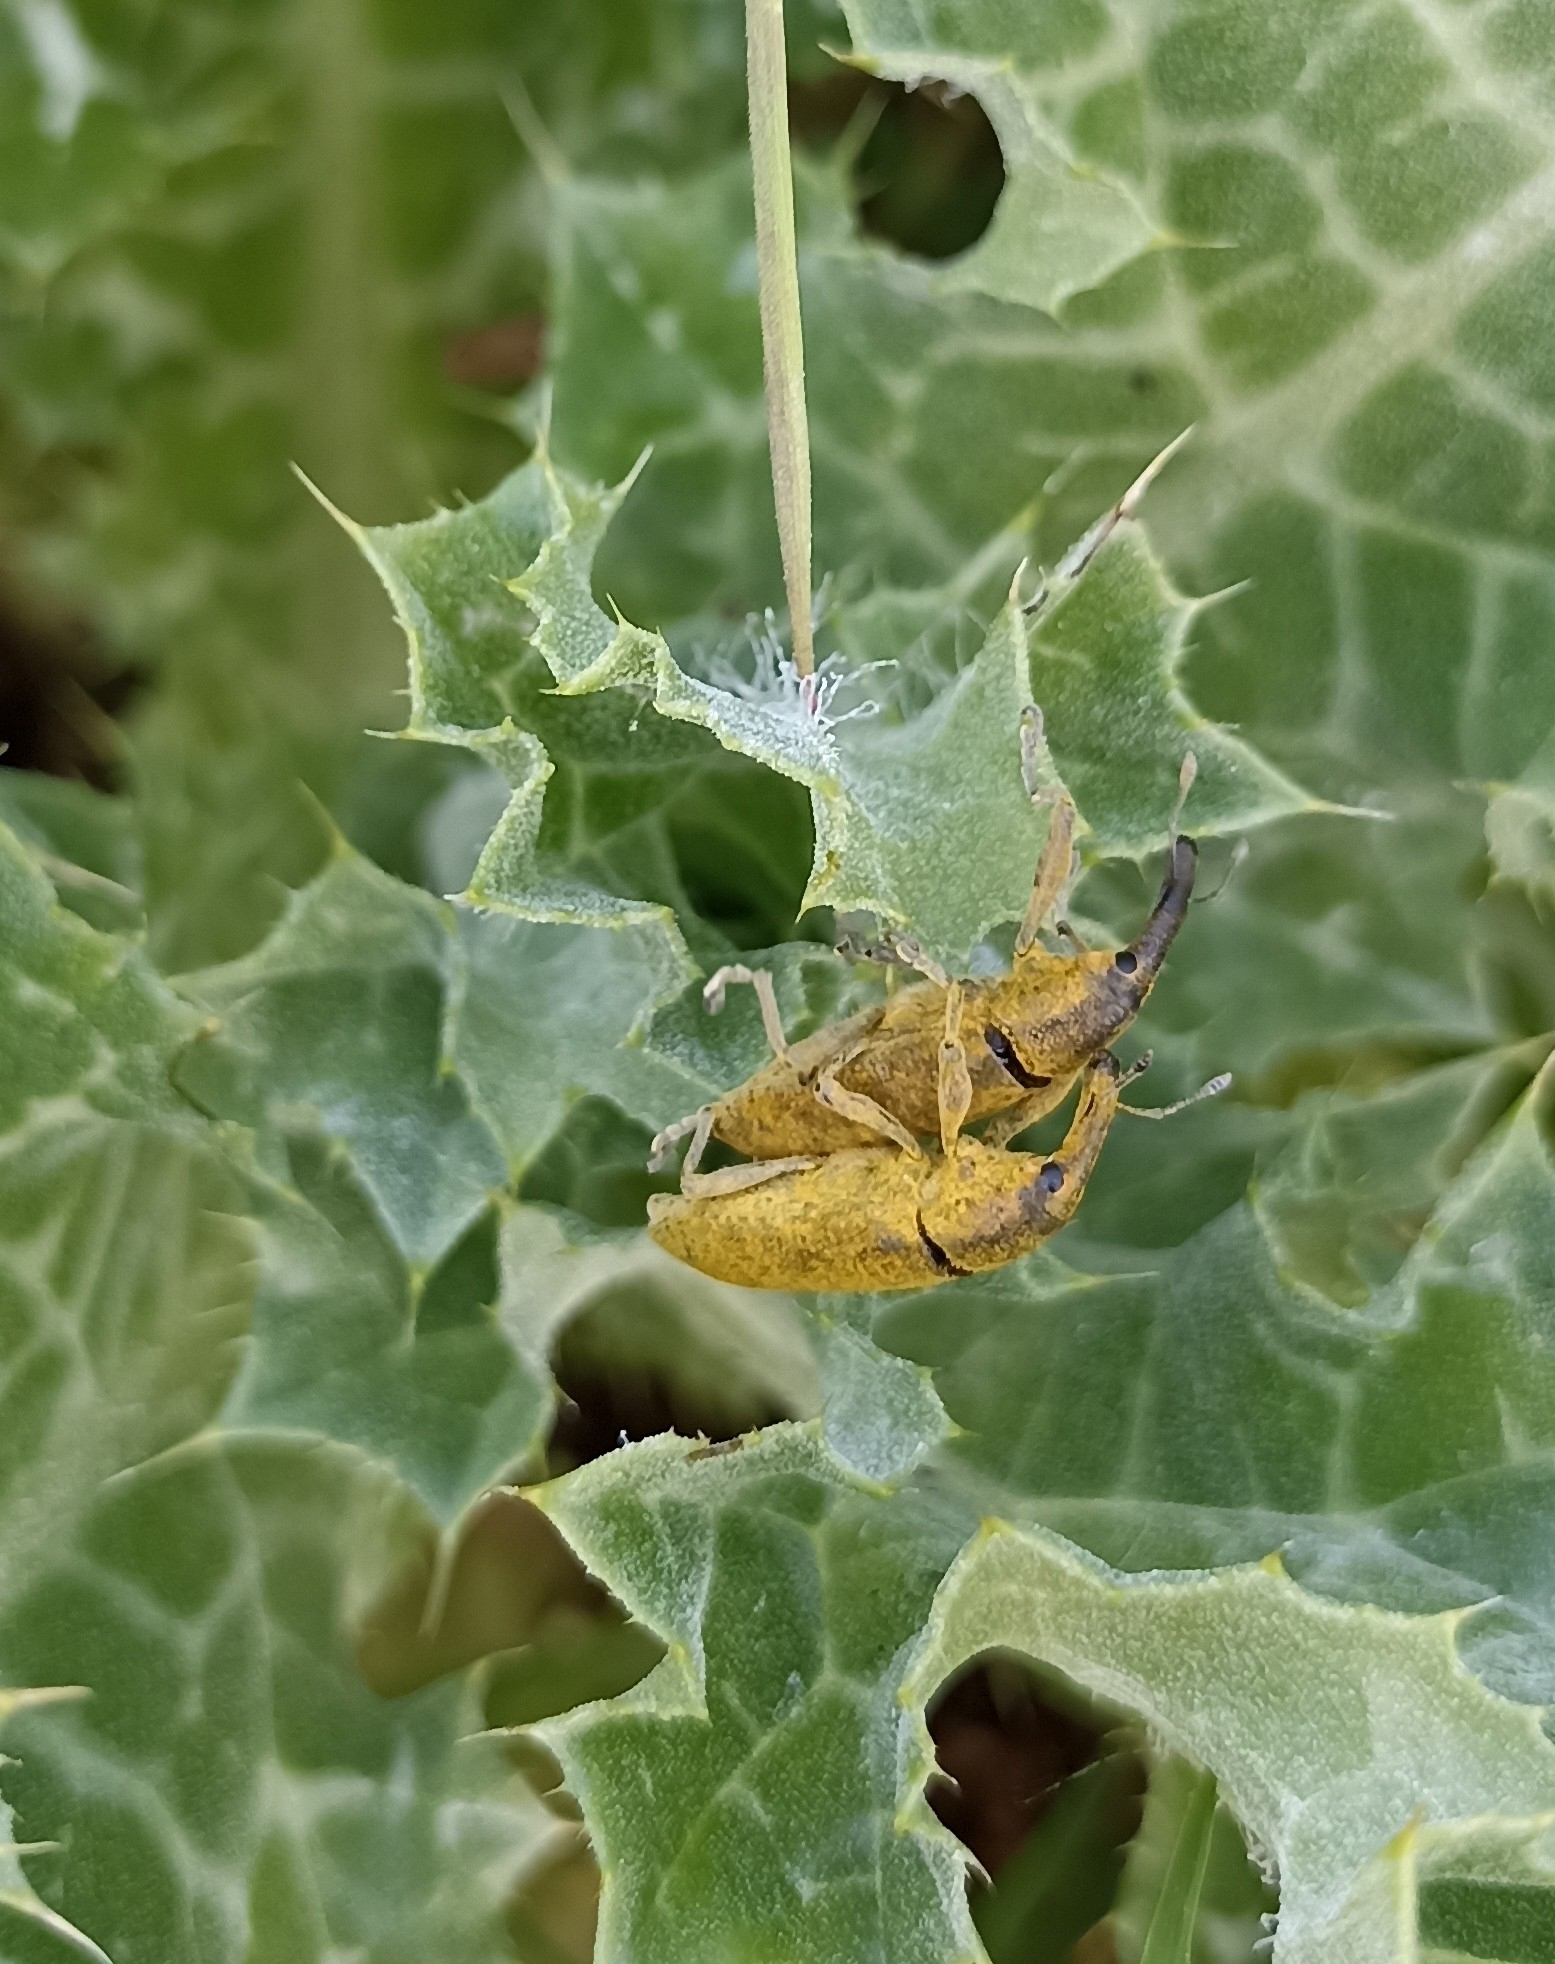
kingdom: Animalia
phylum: Arthropoda
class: Insecta
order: Coleoptera
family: Curculionidae
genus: Lixus
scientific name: Lixus pulverulentus
